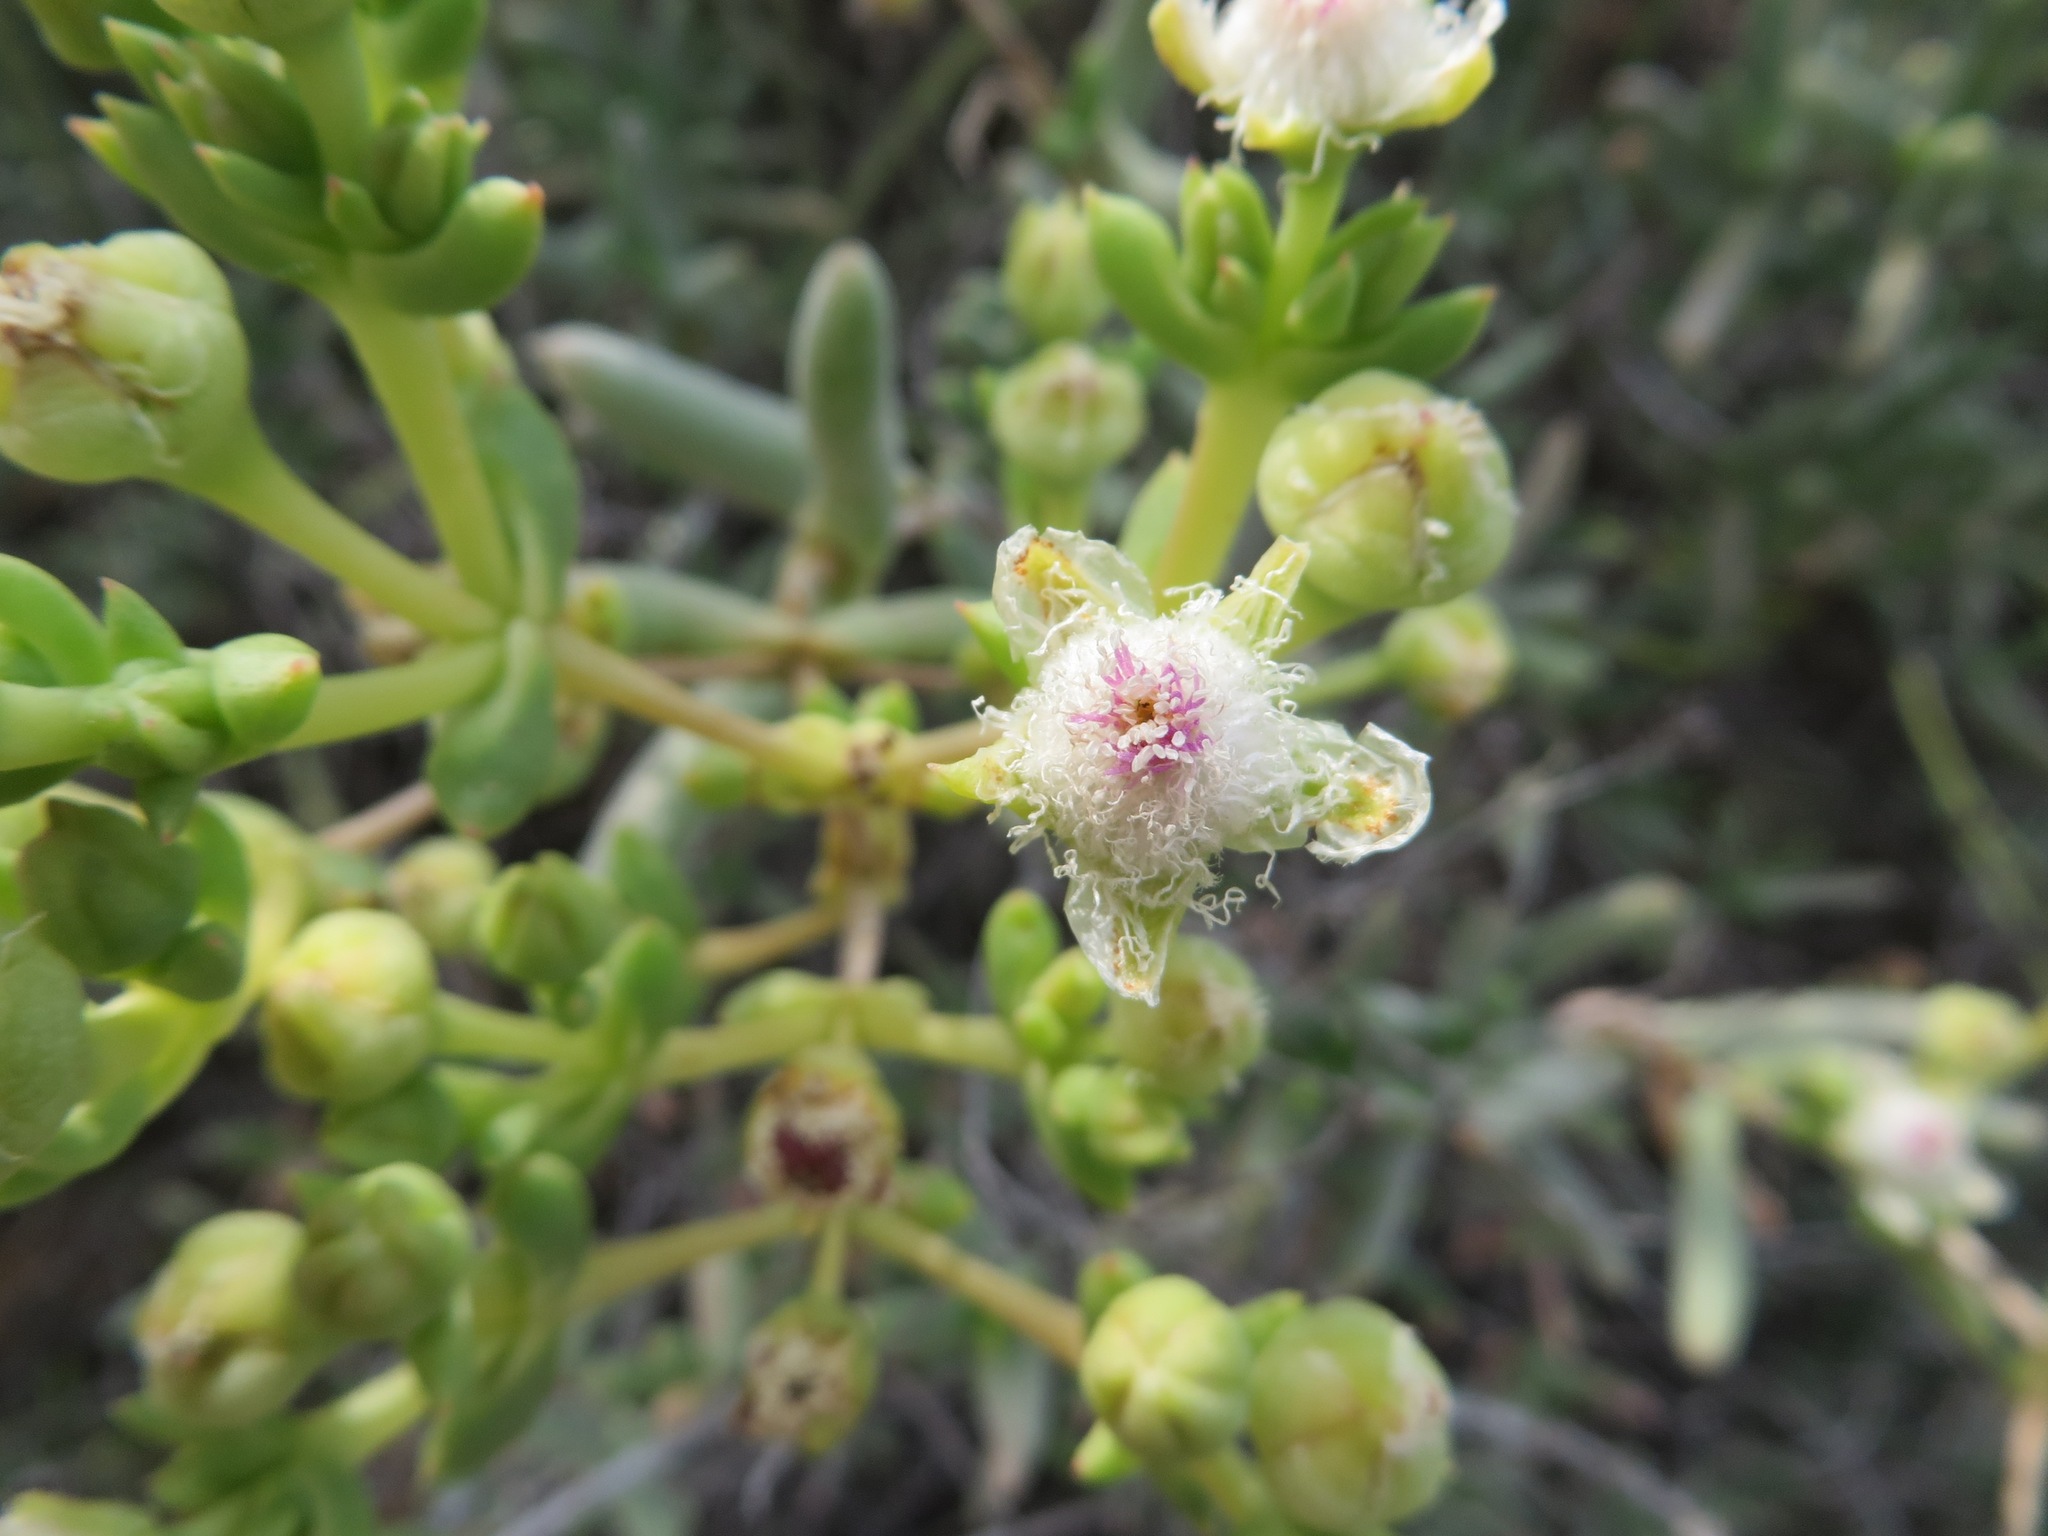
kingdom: Plantae
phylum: Tracheophyta
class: Magnoliopsida
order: Caryophyllales
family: Aizoaceae
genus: Stoeberia
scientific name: Stoeberia frutescens
